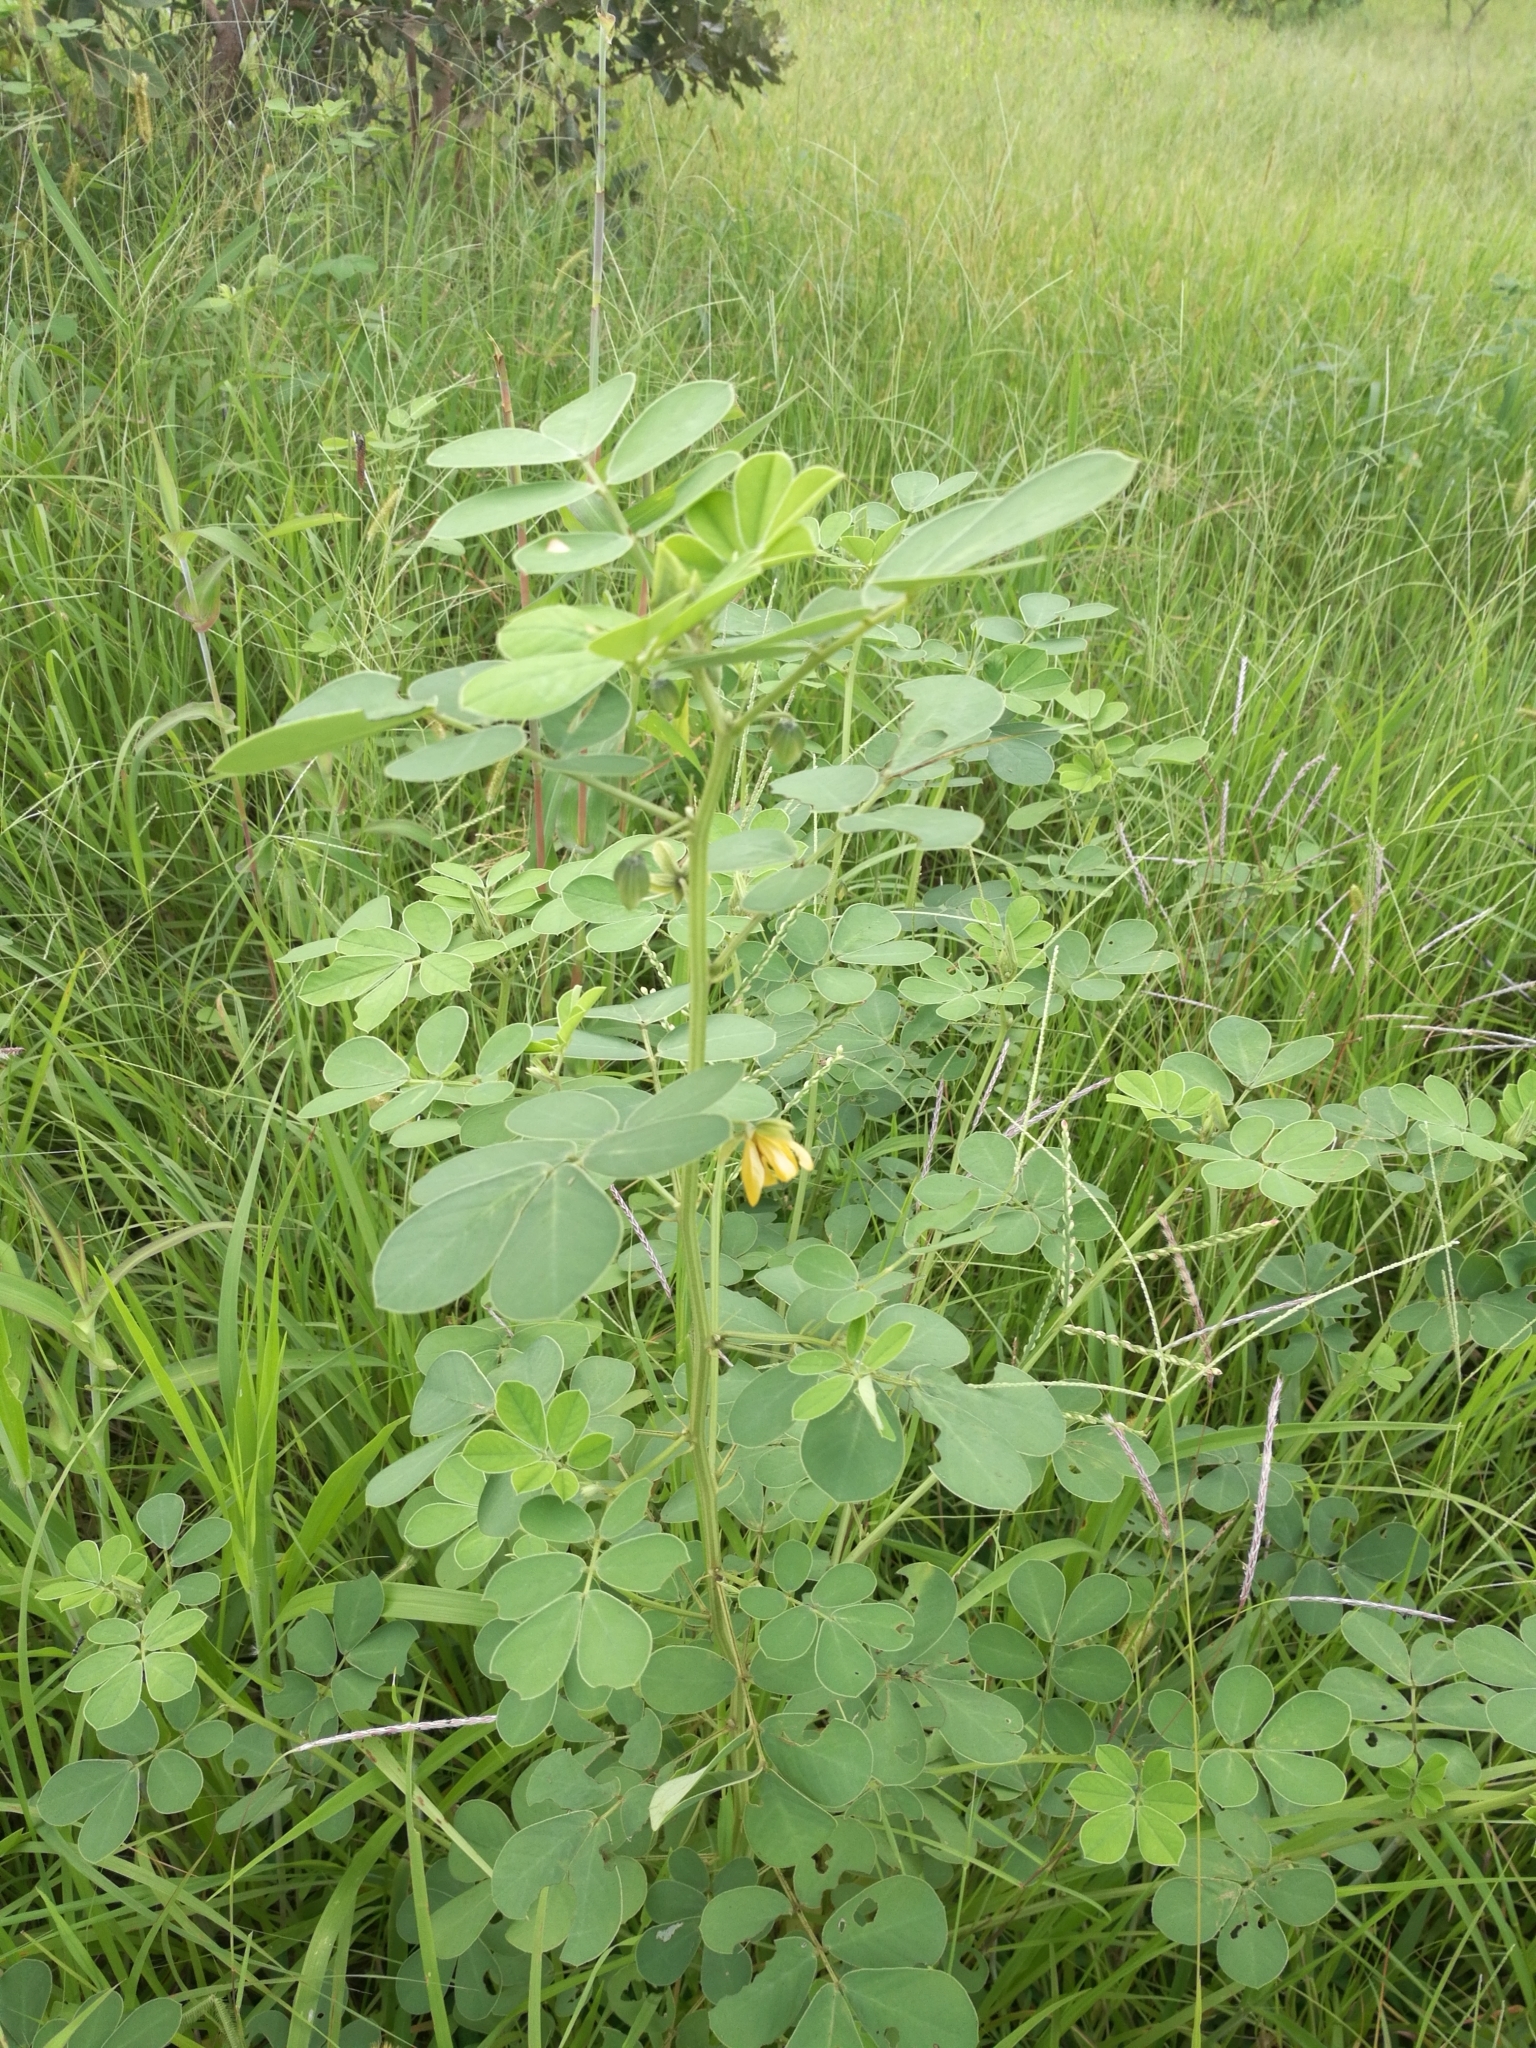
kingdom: Plantae
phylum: Tracheophyta
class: Magnoliopsida
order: Fabales
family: Fabaceae
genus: Senna
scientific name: Senna obtusifolia
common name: Java-bean
